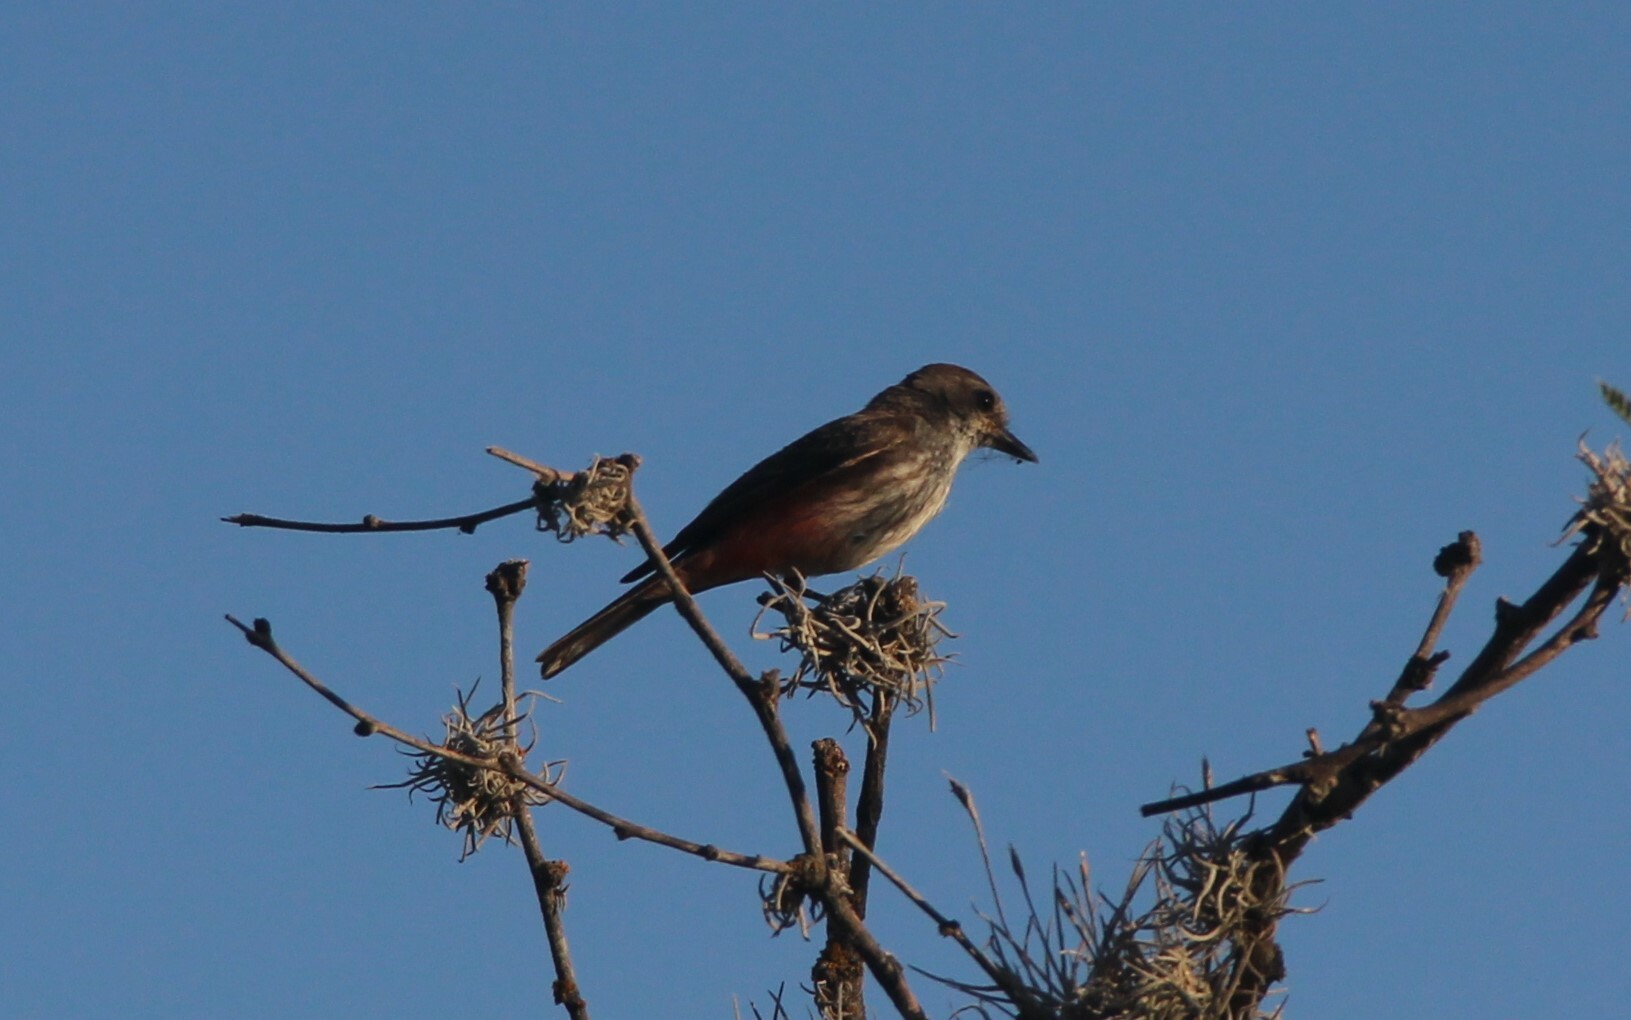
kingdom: Animalia
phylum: Chordata
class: Aves
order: Passeriformes
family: Tyrannidae
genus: Pyrocephalus
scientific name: Pyrocephalus rubinus
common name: Vermilion flycatcher
